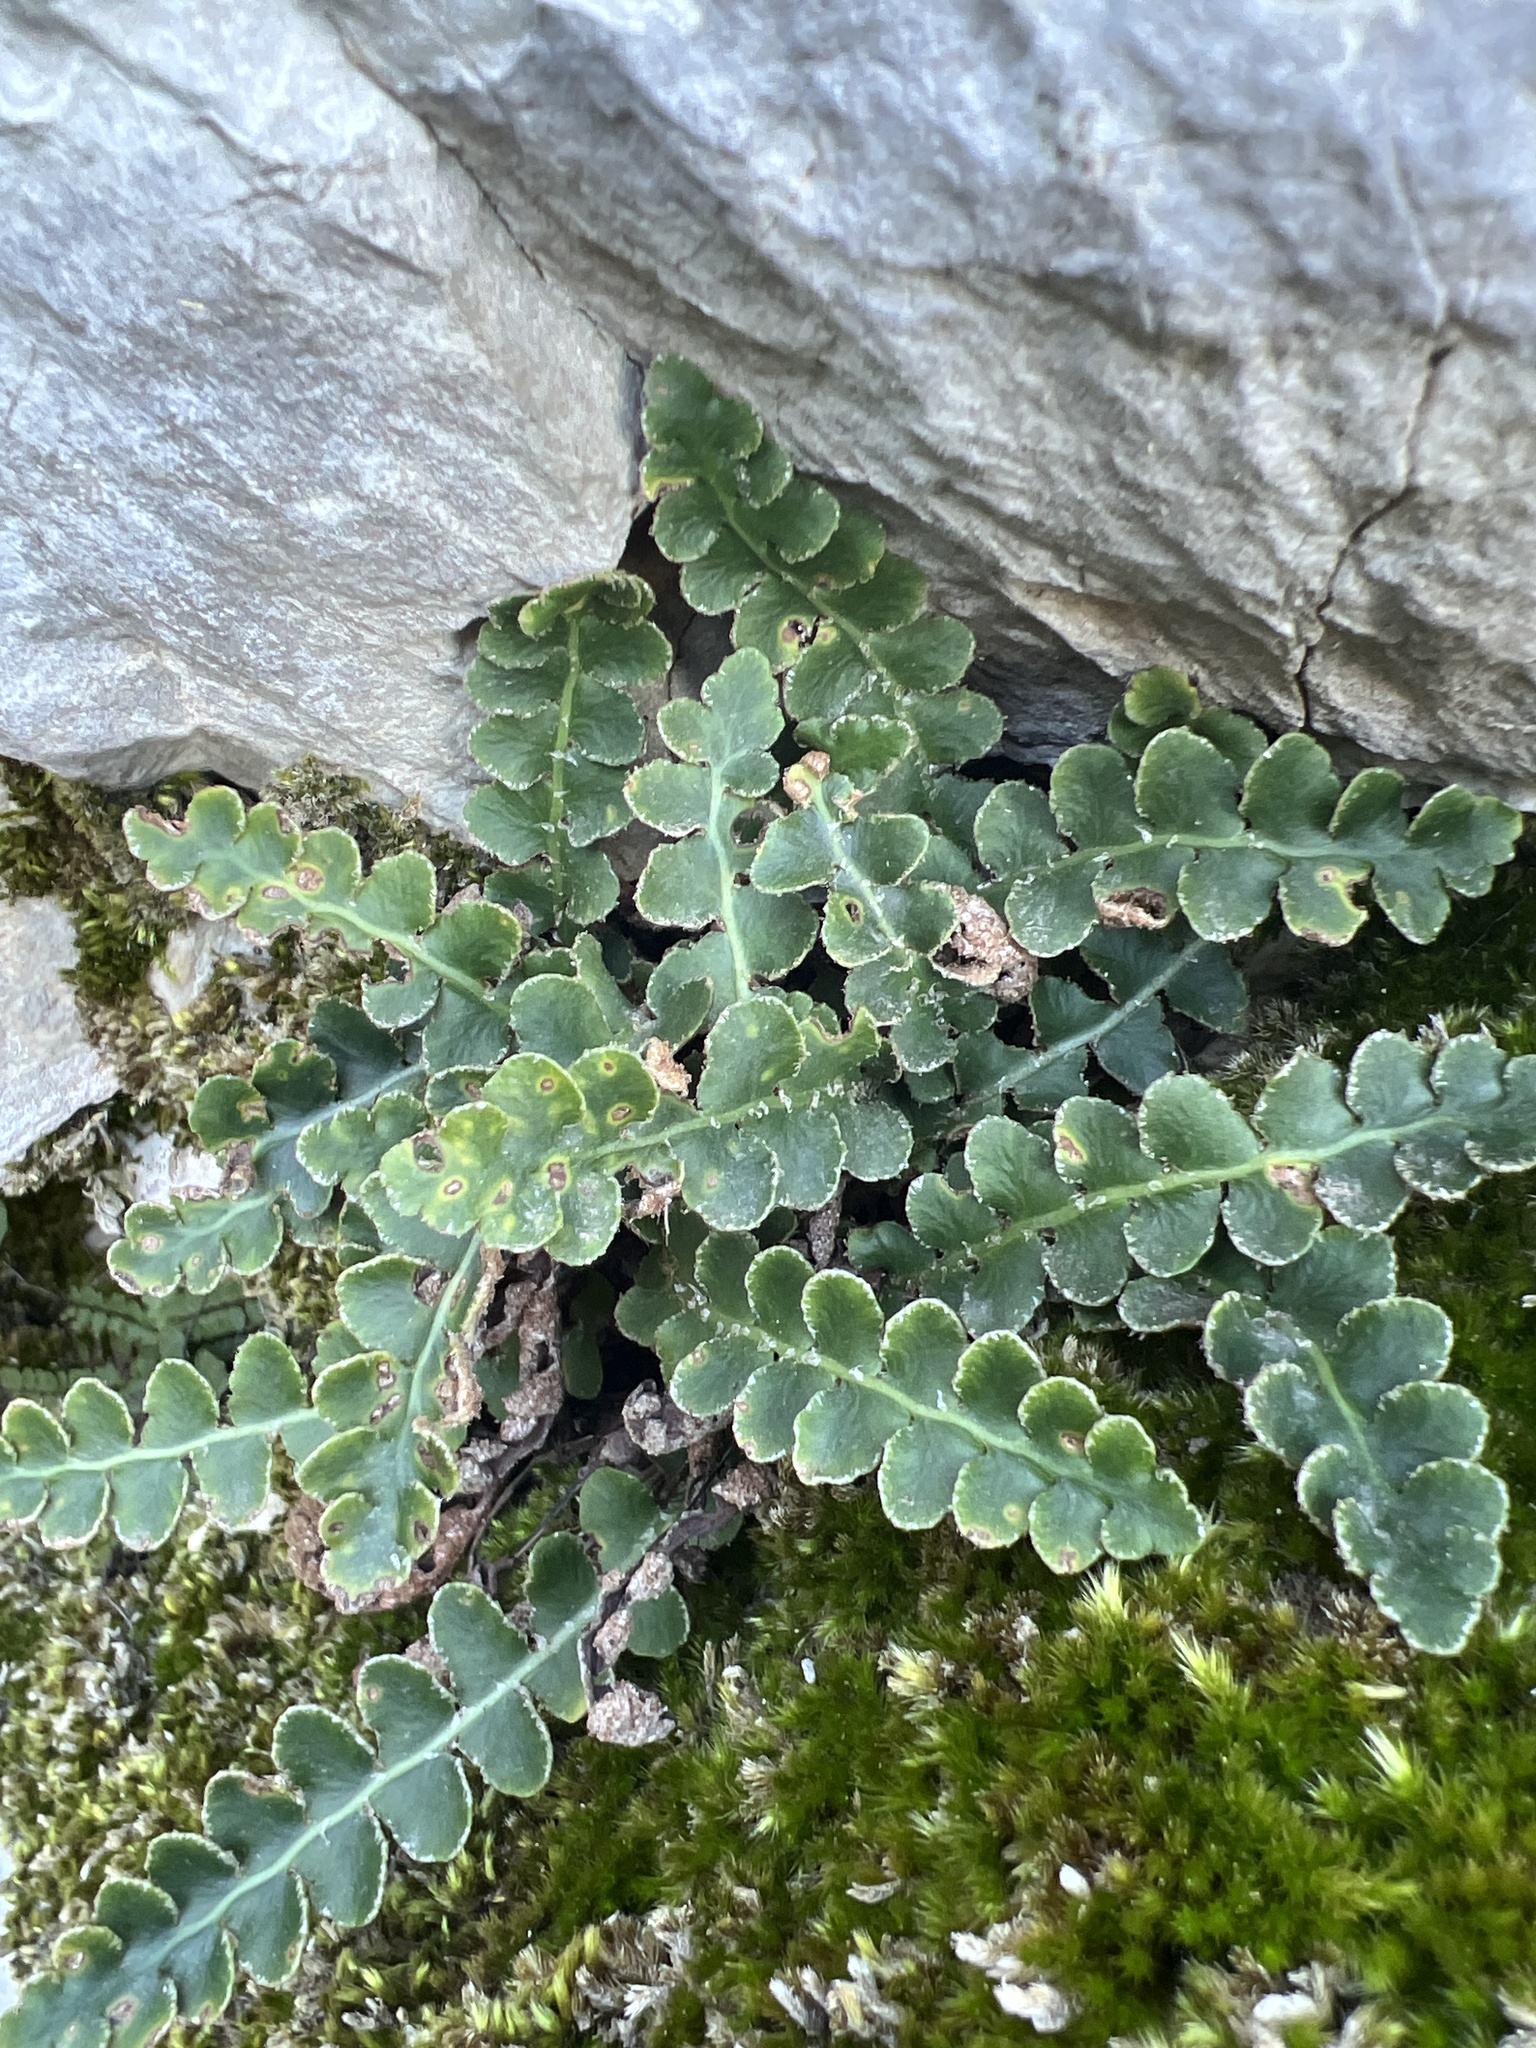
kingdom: Plantae
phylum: Tracheophyta
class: Polypodiopsida
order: Polypodiales
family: Aspleniaceae
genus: Asplenium
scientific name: Asplenium ceterach
